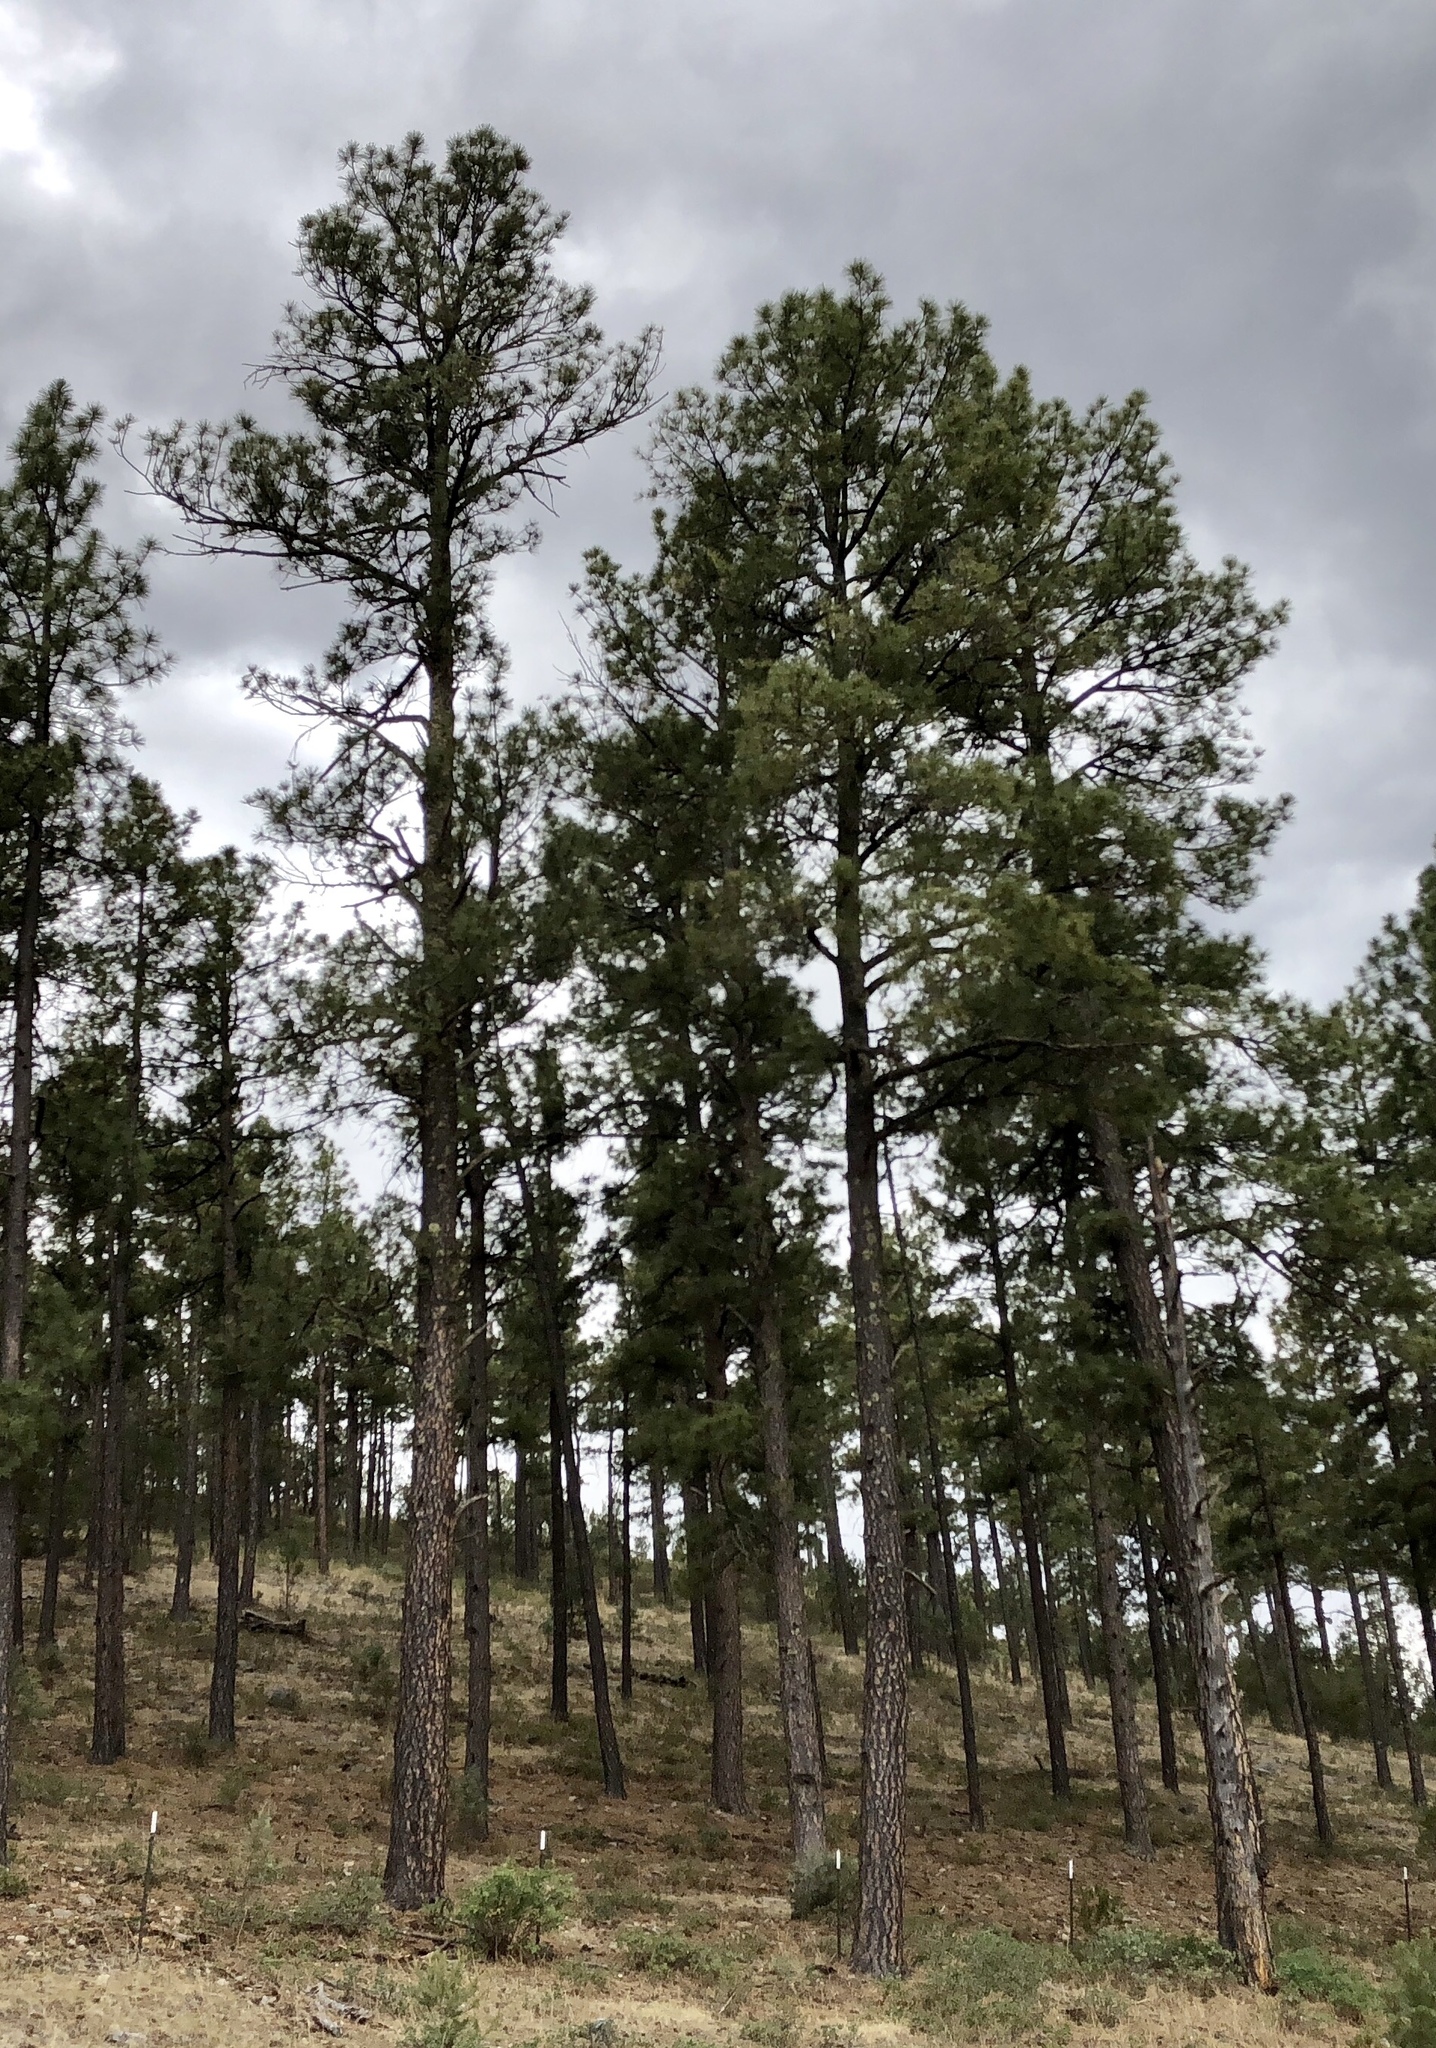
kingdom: Plantae
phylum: Tracheophyta
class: Pinopsida
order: Pinales
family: Pinaceae
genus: Pinus
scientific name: Pinus ponderosa
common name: Western yellow-pine
